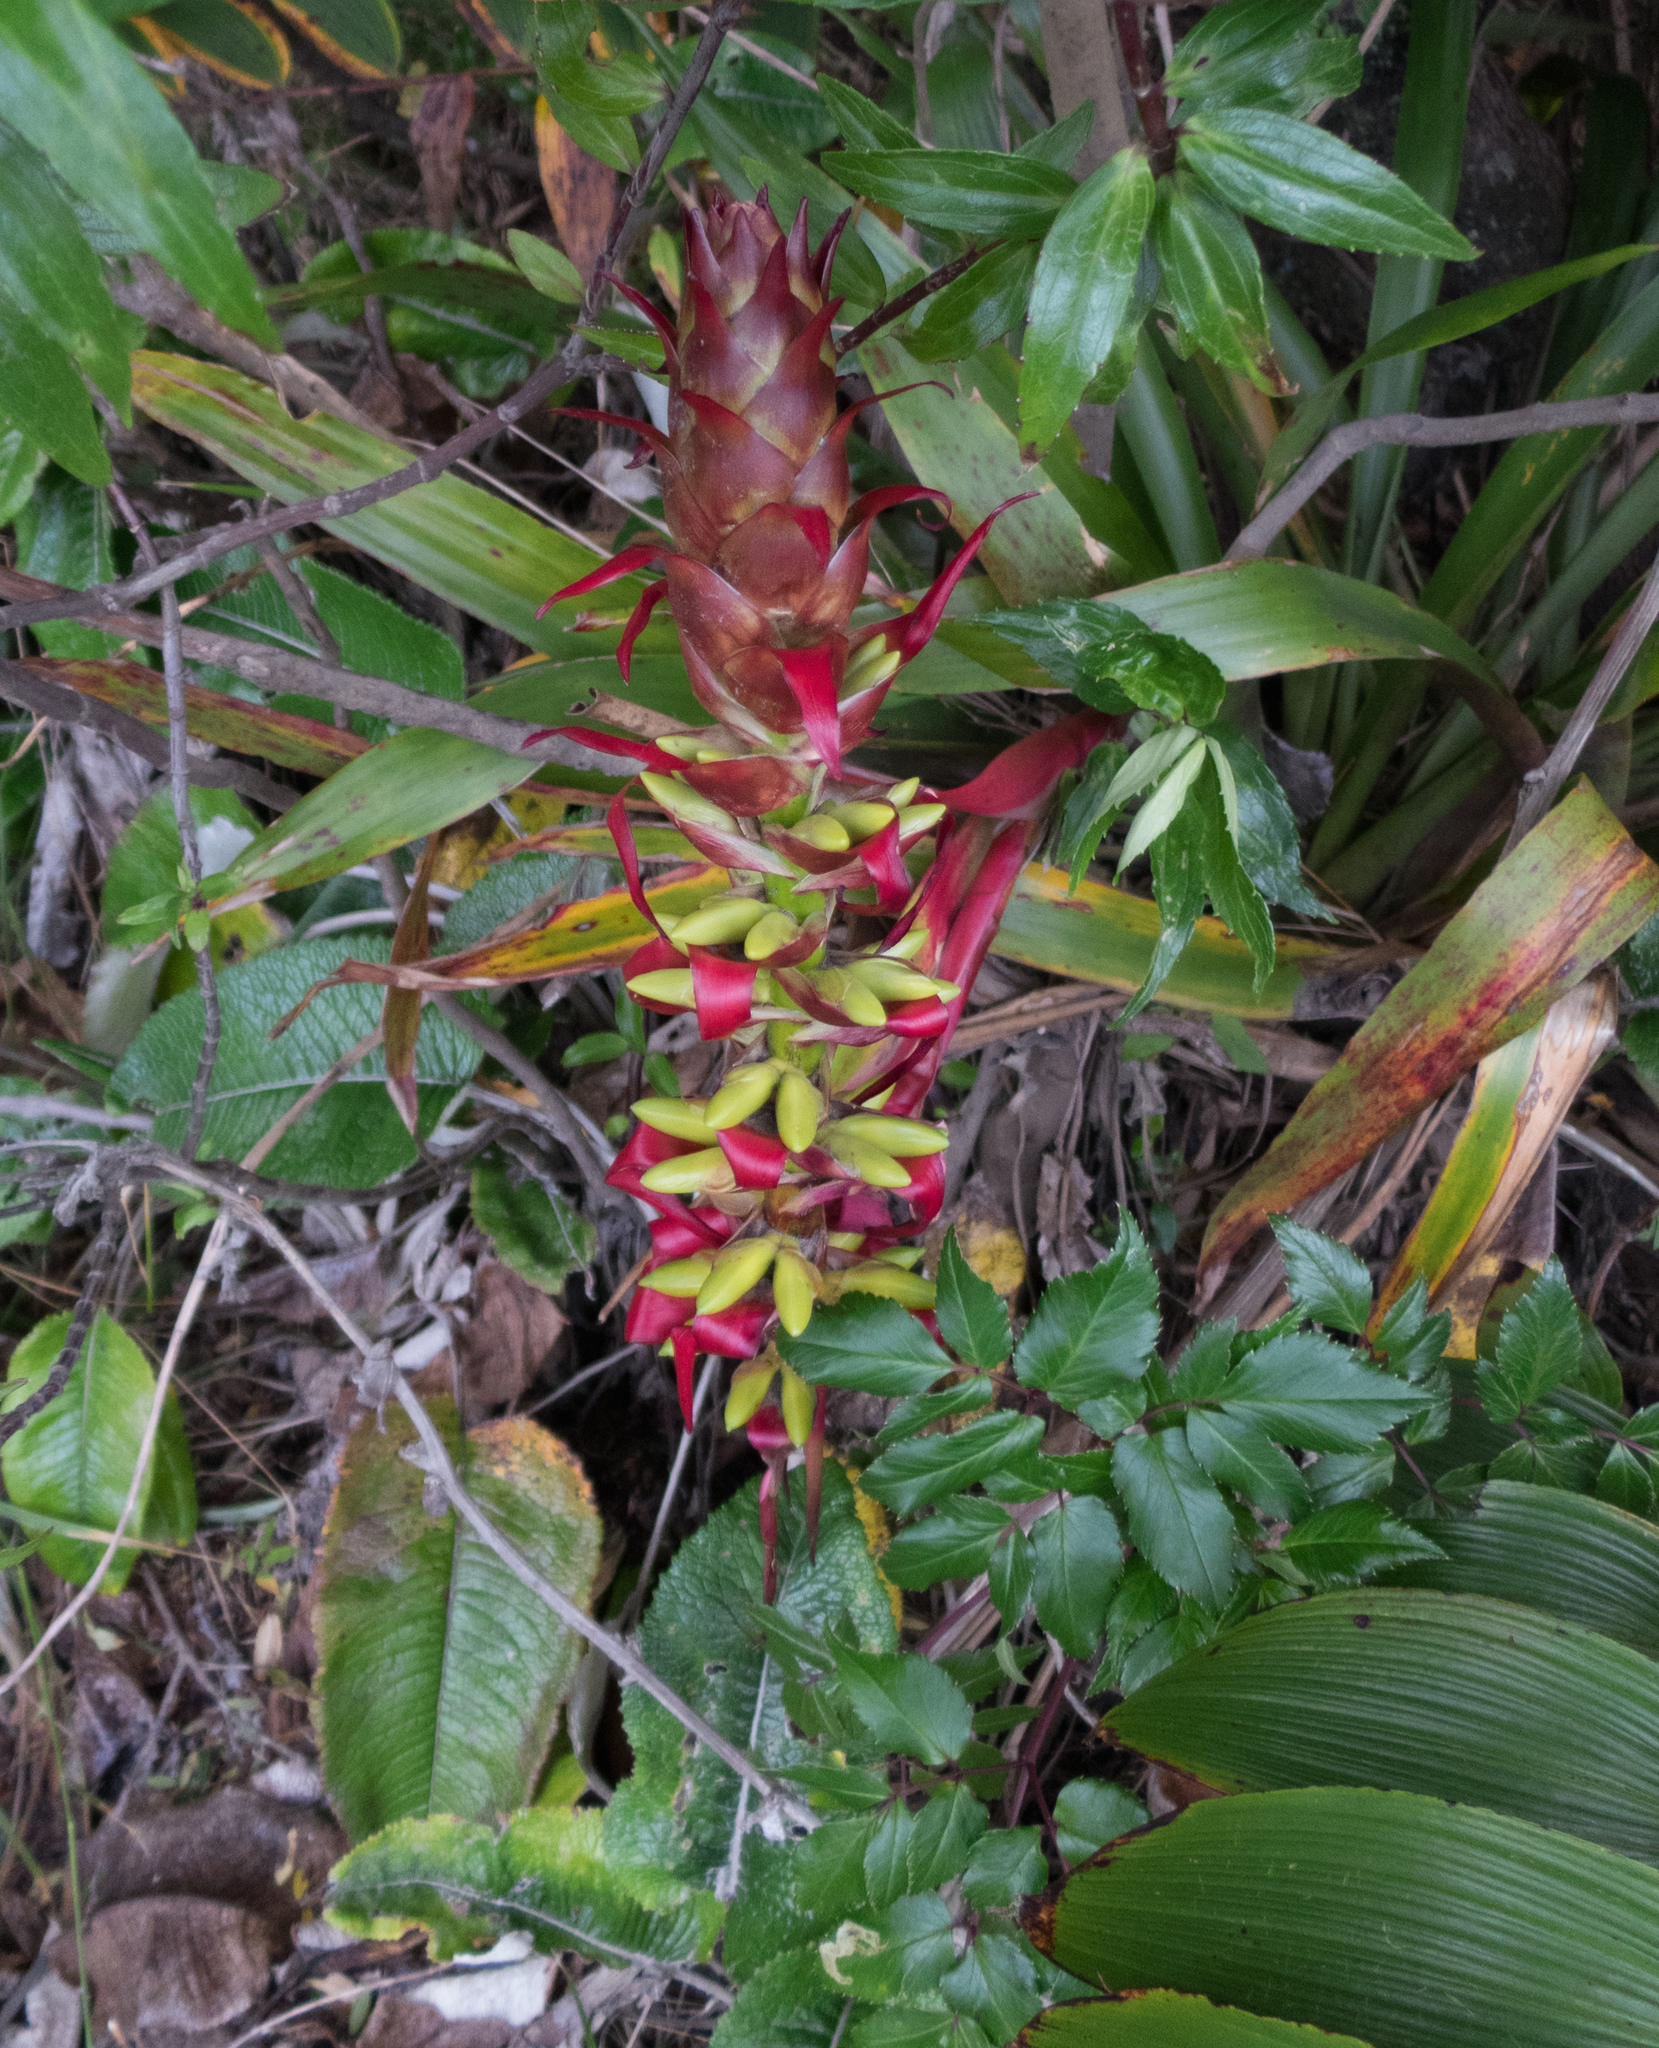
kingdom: Plantae
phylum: Tracheophyta
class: Liliopsida
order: Poales
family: Bromeliaceae
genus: Werauhia
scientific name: Werauhia ororiensis
